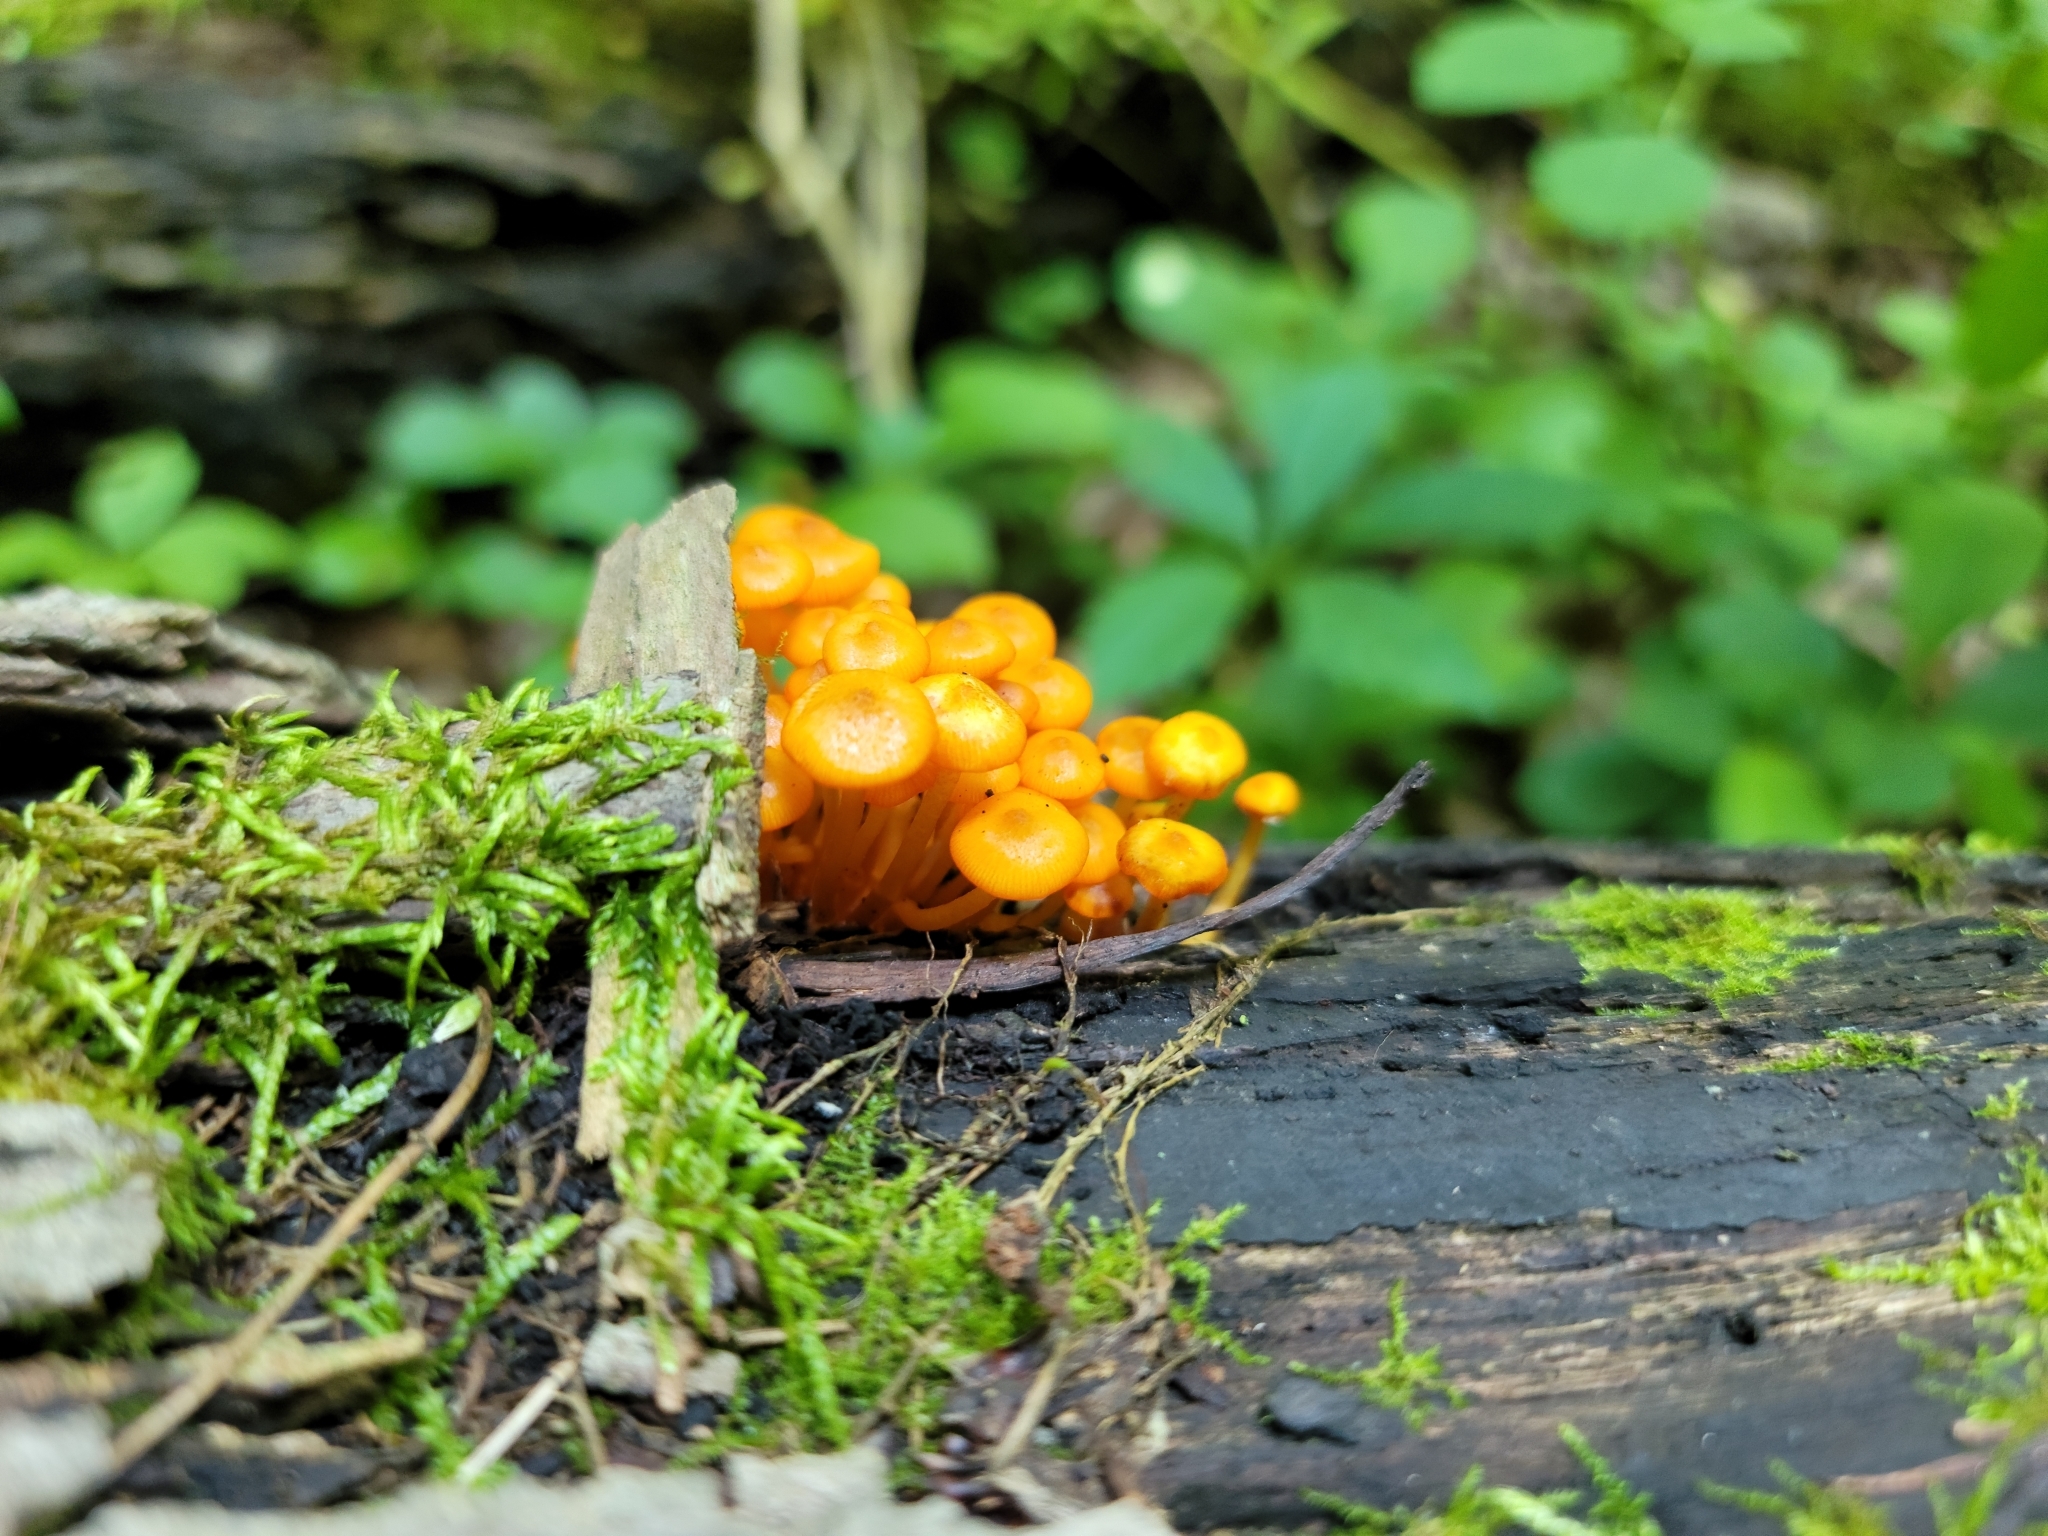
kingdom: Fungi
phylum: Basidiomycota
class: Agaricomycetes
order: Agaricales
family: Mycenaceae
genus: Mycena
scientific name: Mycena leaiana
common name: Orange mycena
